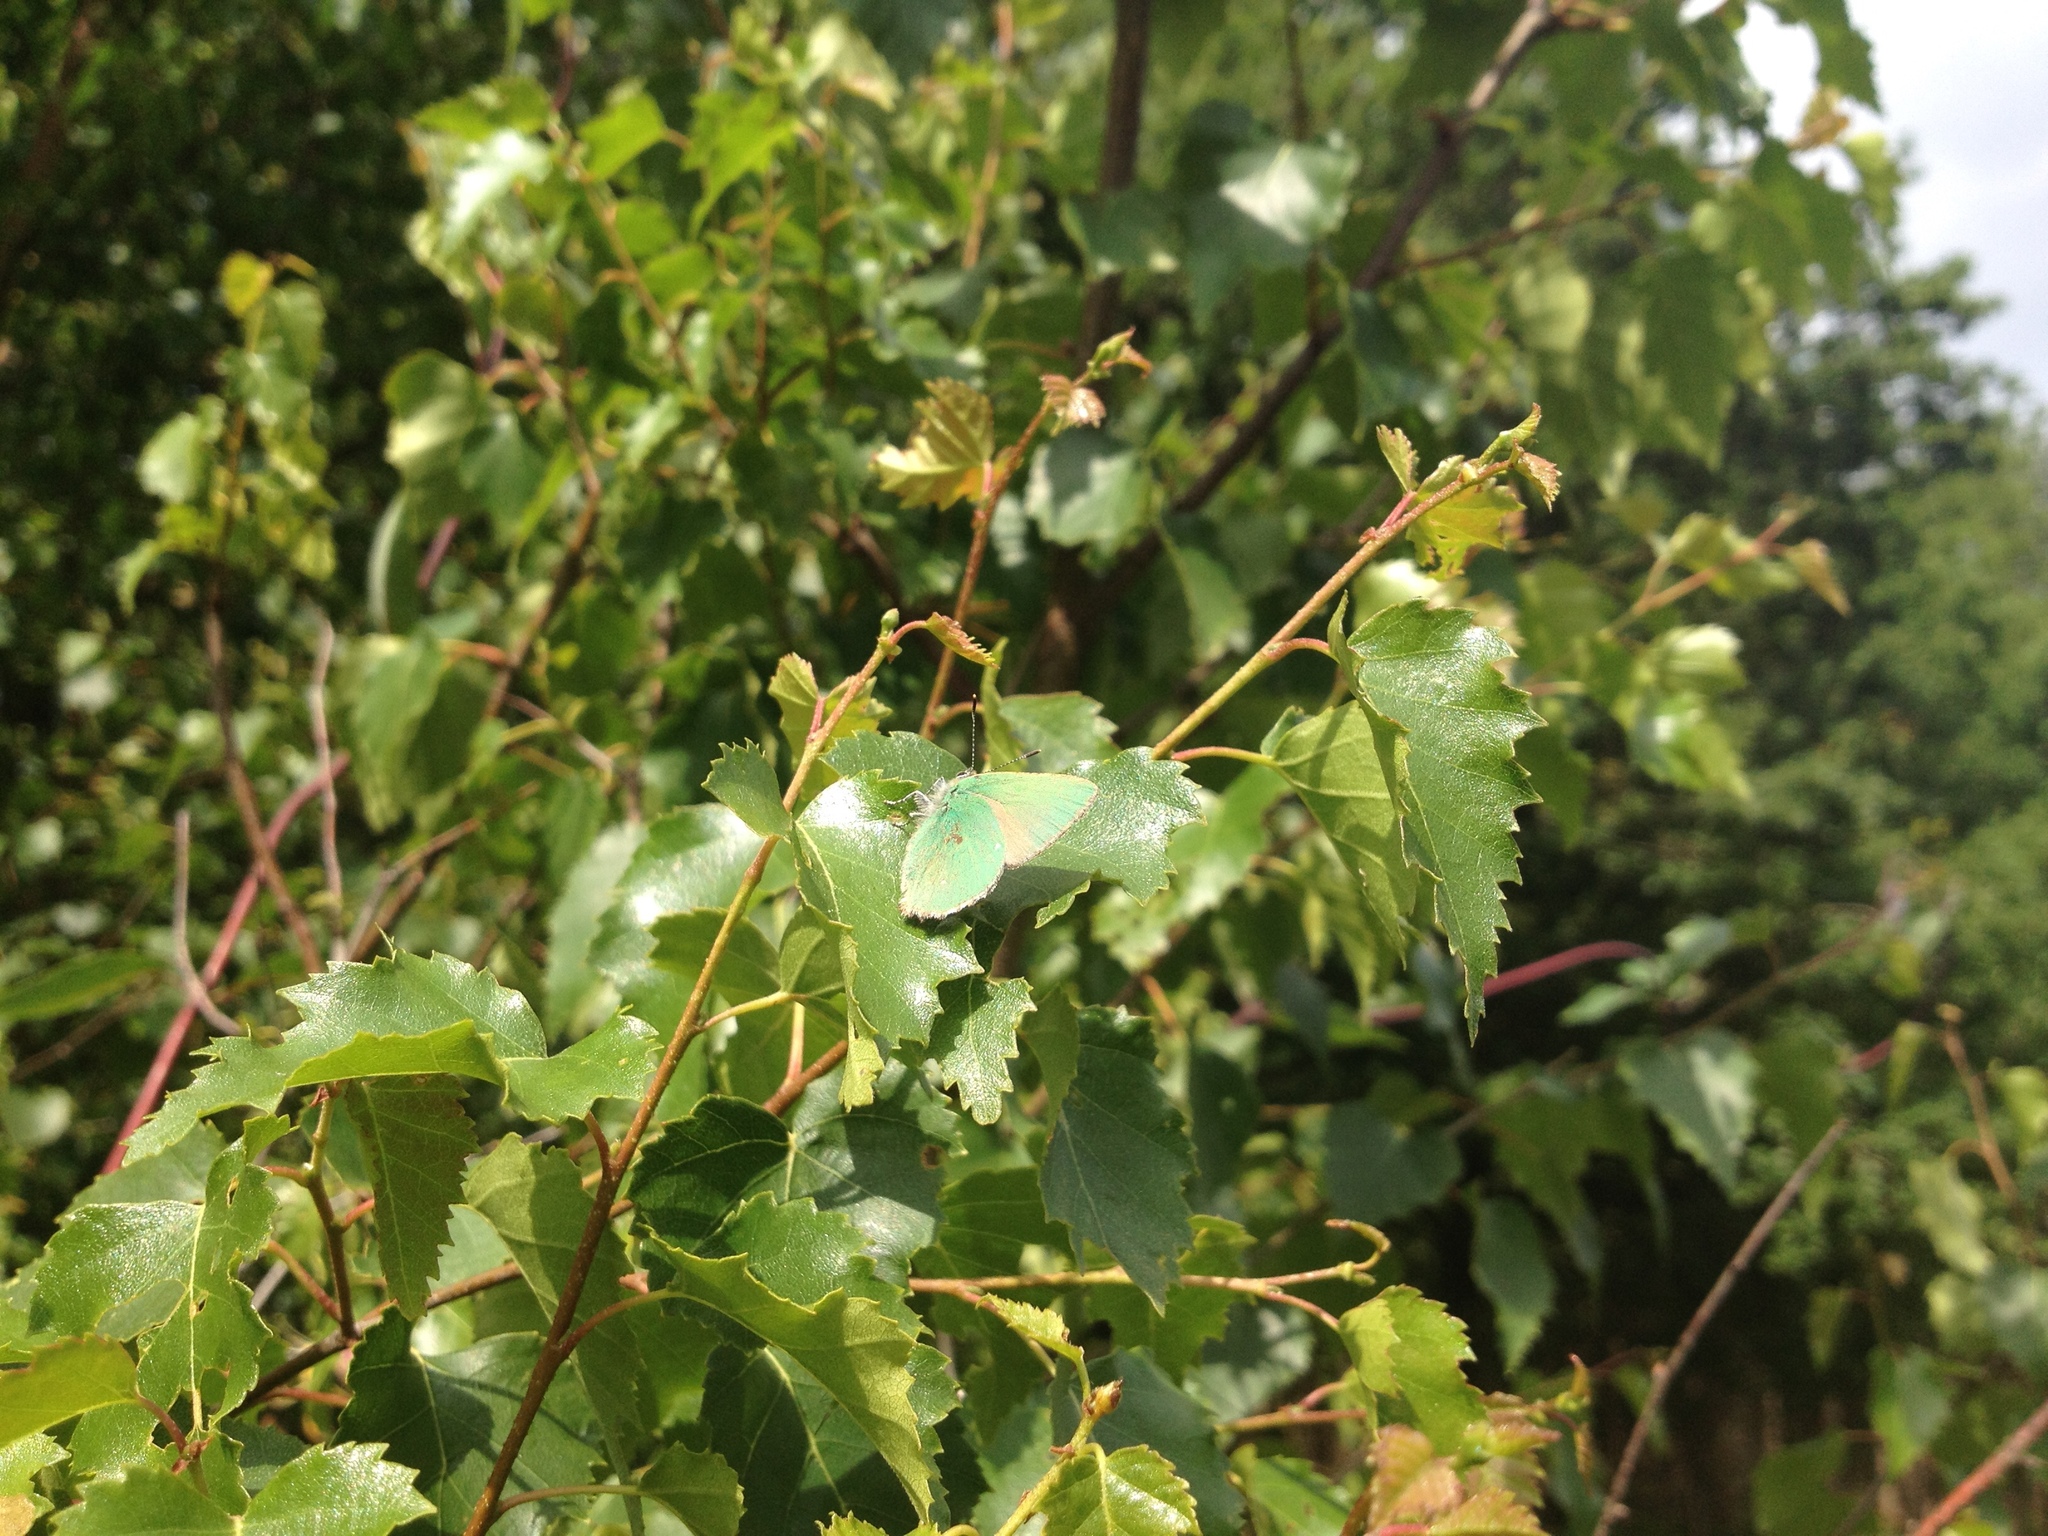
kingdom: Animalia
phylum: Arthropoda
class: Insecta
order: Lepidoptera
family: Lycaenidae
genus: Callophrys
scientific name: Callophrys rubi
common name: Green hairstreak
